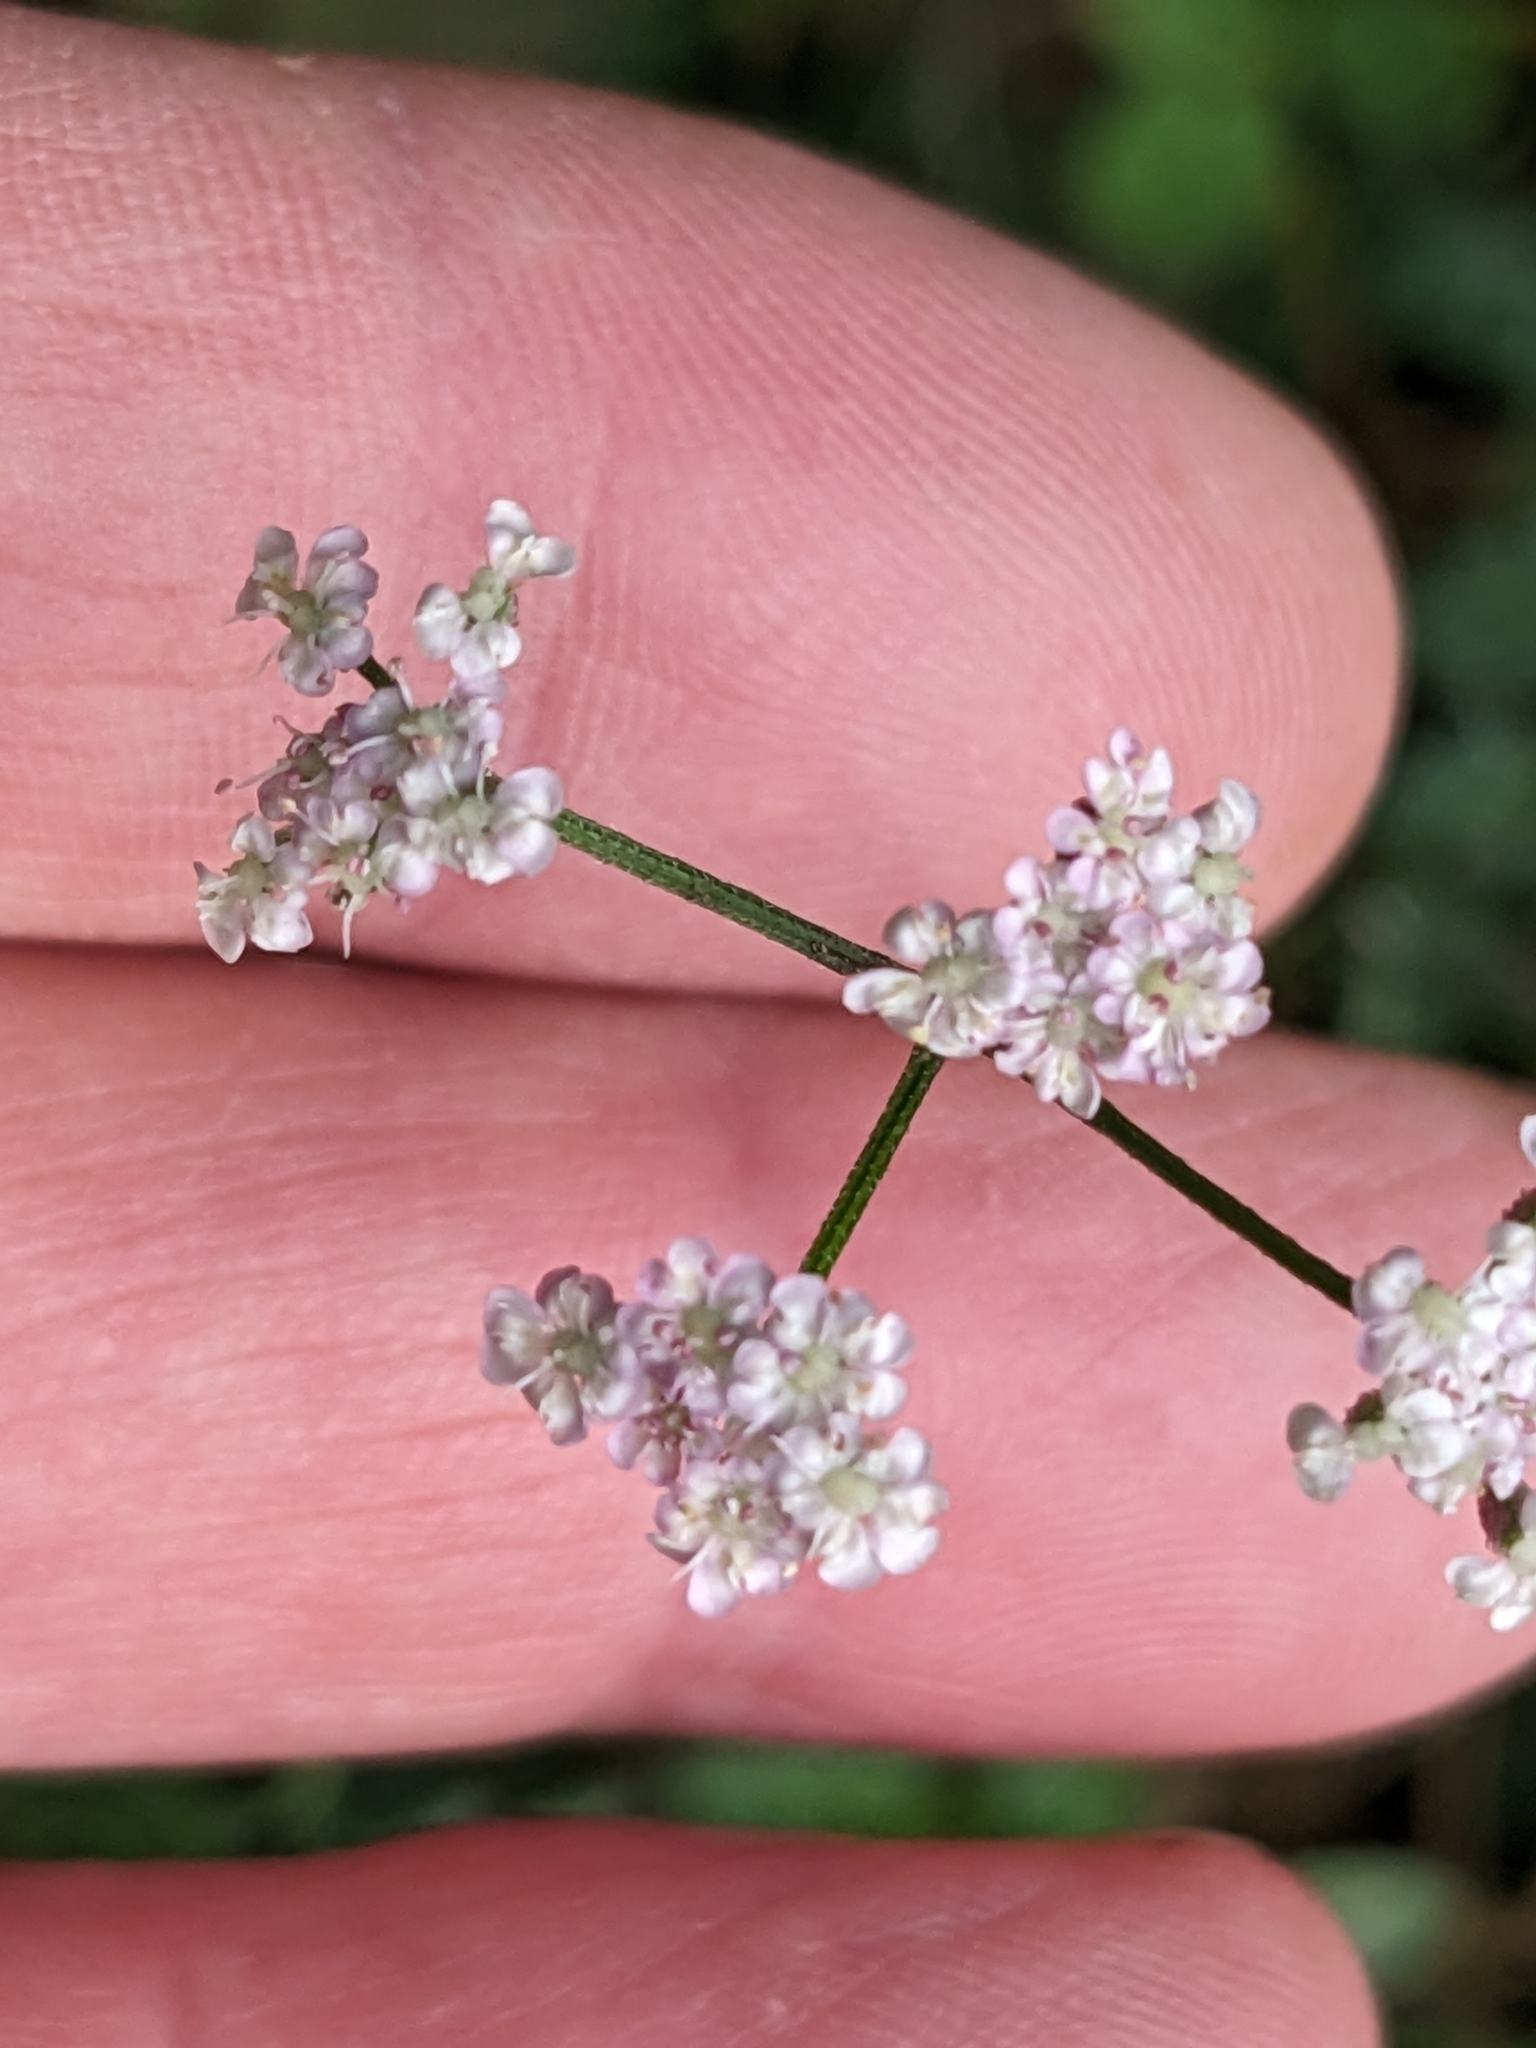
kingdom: Plantae
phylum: Tracheophyta
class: Magnoliopsida
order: Apiales
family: Apiaceae
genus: Torilis
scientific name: Torilis japonica
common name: Upright hedge-parsley
